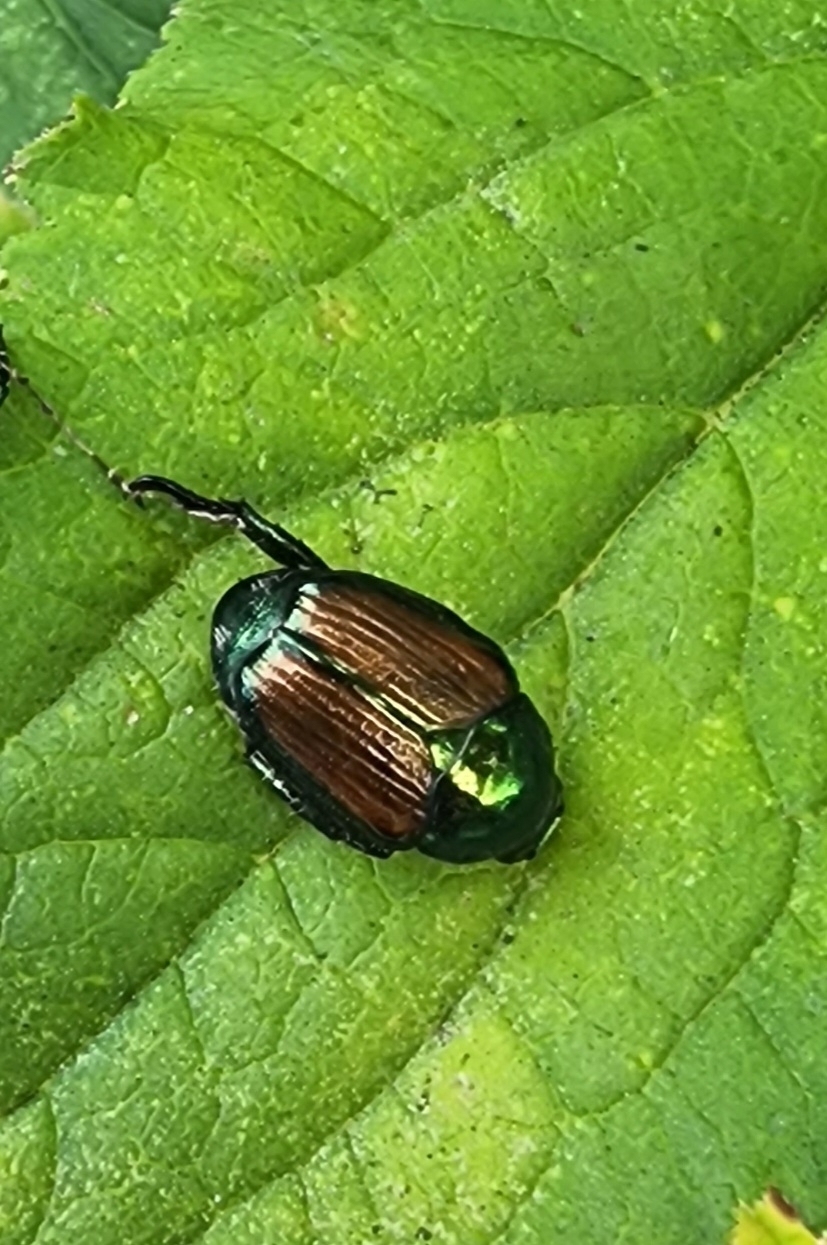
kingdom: Animalia
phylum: Arthropoda
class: Insecta
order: Coleoptera
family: Scarabaeidae
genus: Popillia
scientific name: Popillia japonica
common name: Japanese beetle
